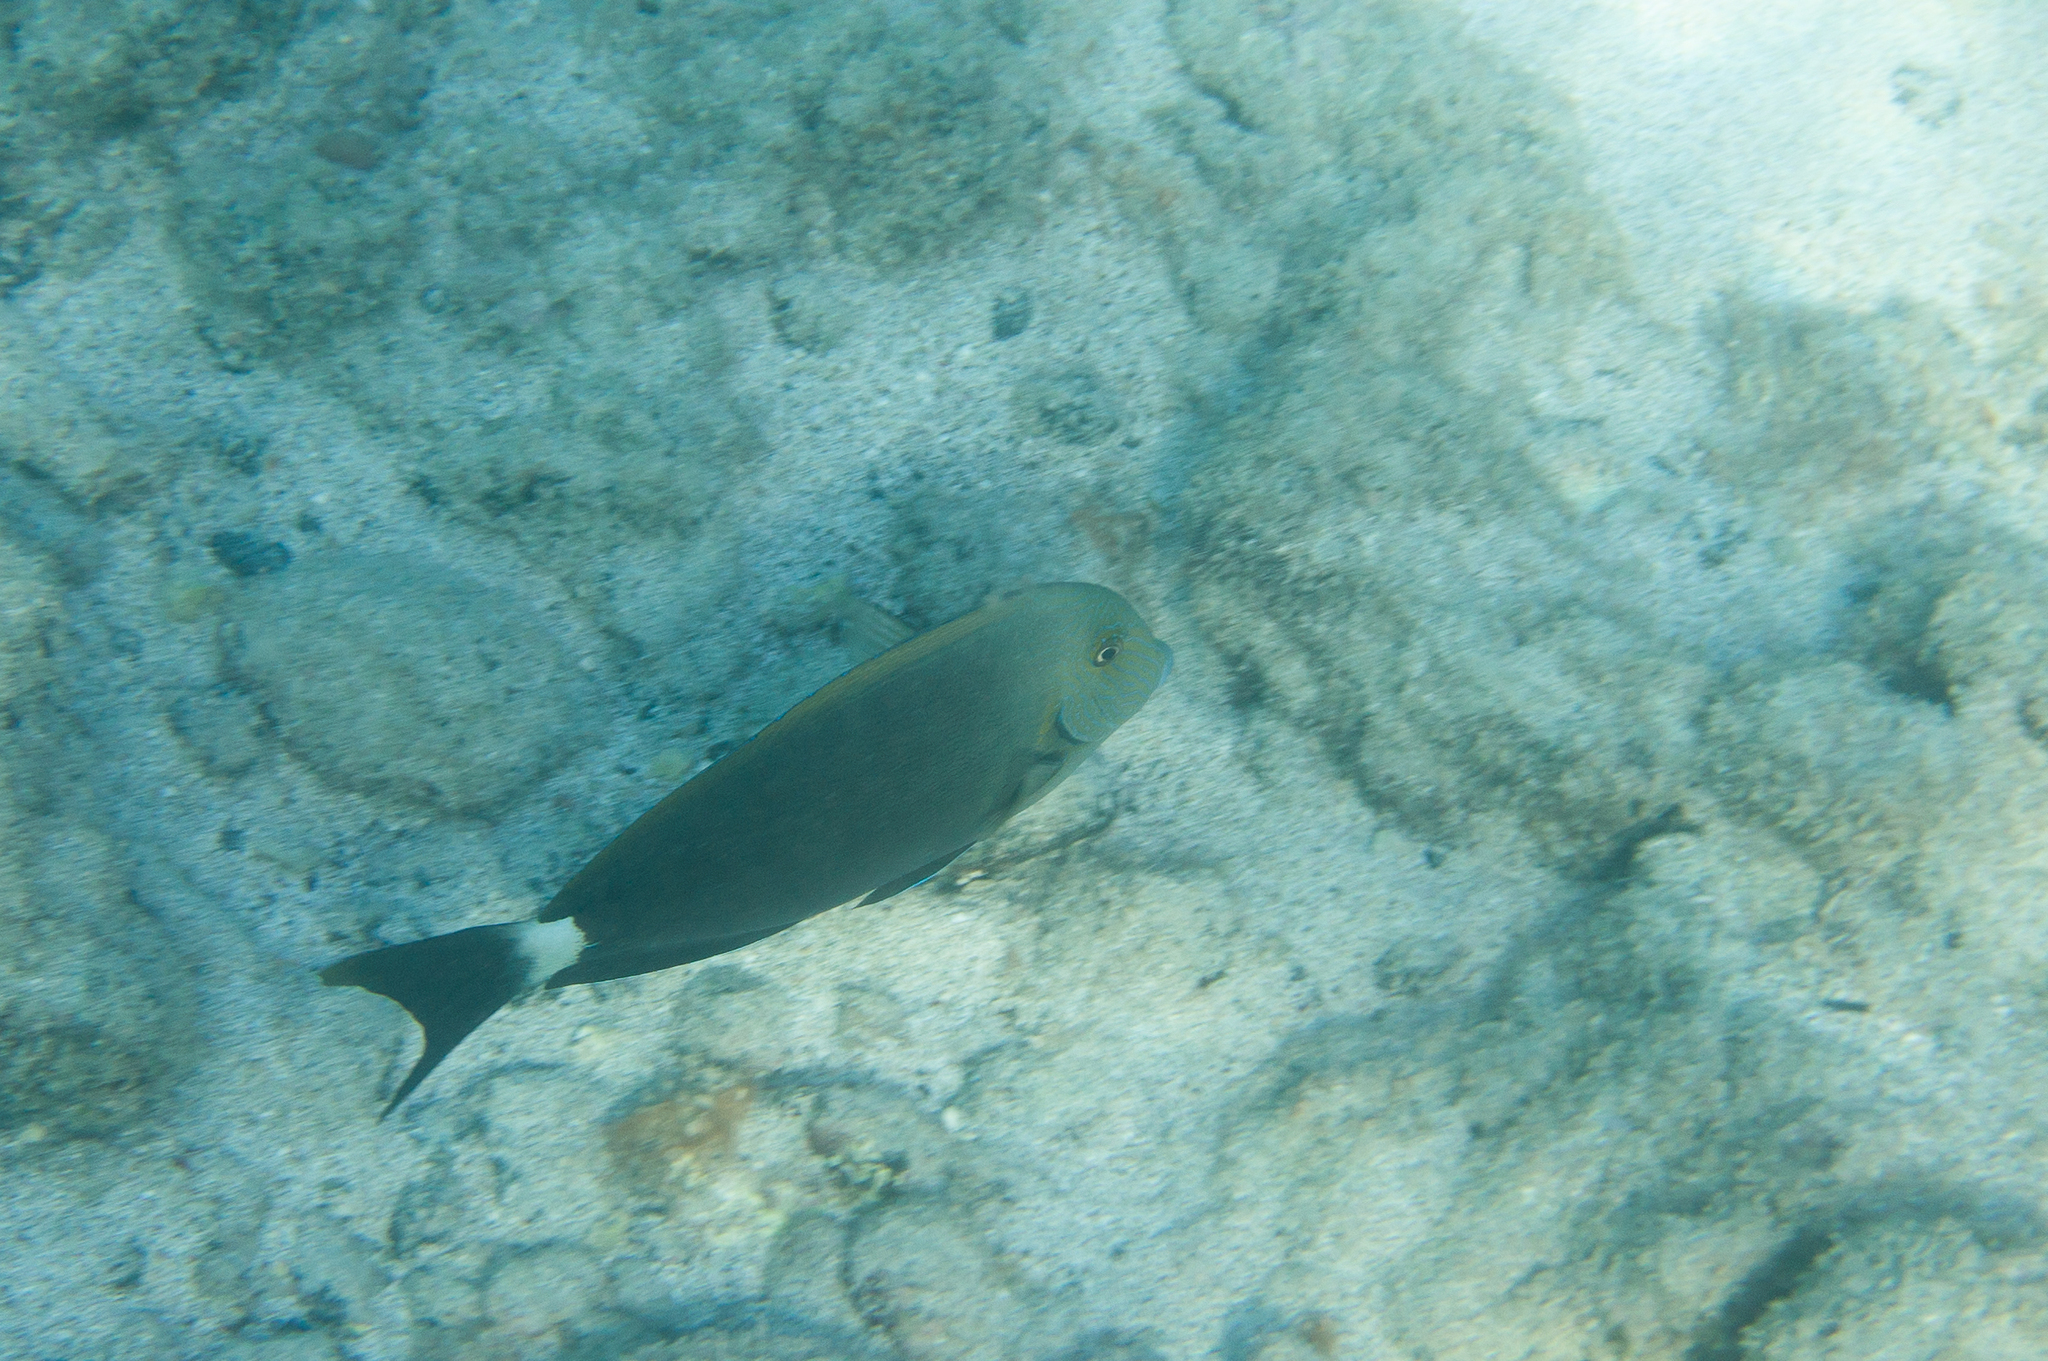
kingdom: Animalia
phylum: Chordata
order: Perciformes
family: Acanthuridae
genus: Acanthurus
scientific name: Acanthurus blochii
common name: Blue-banded pualu
